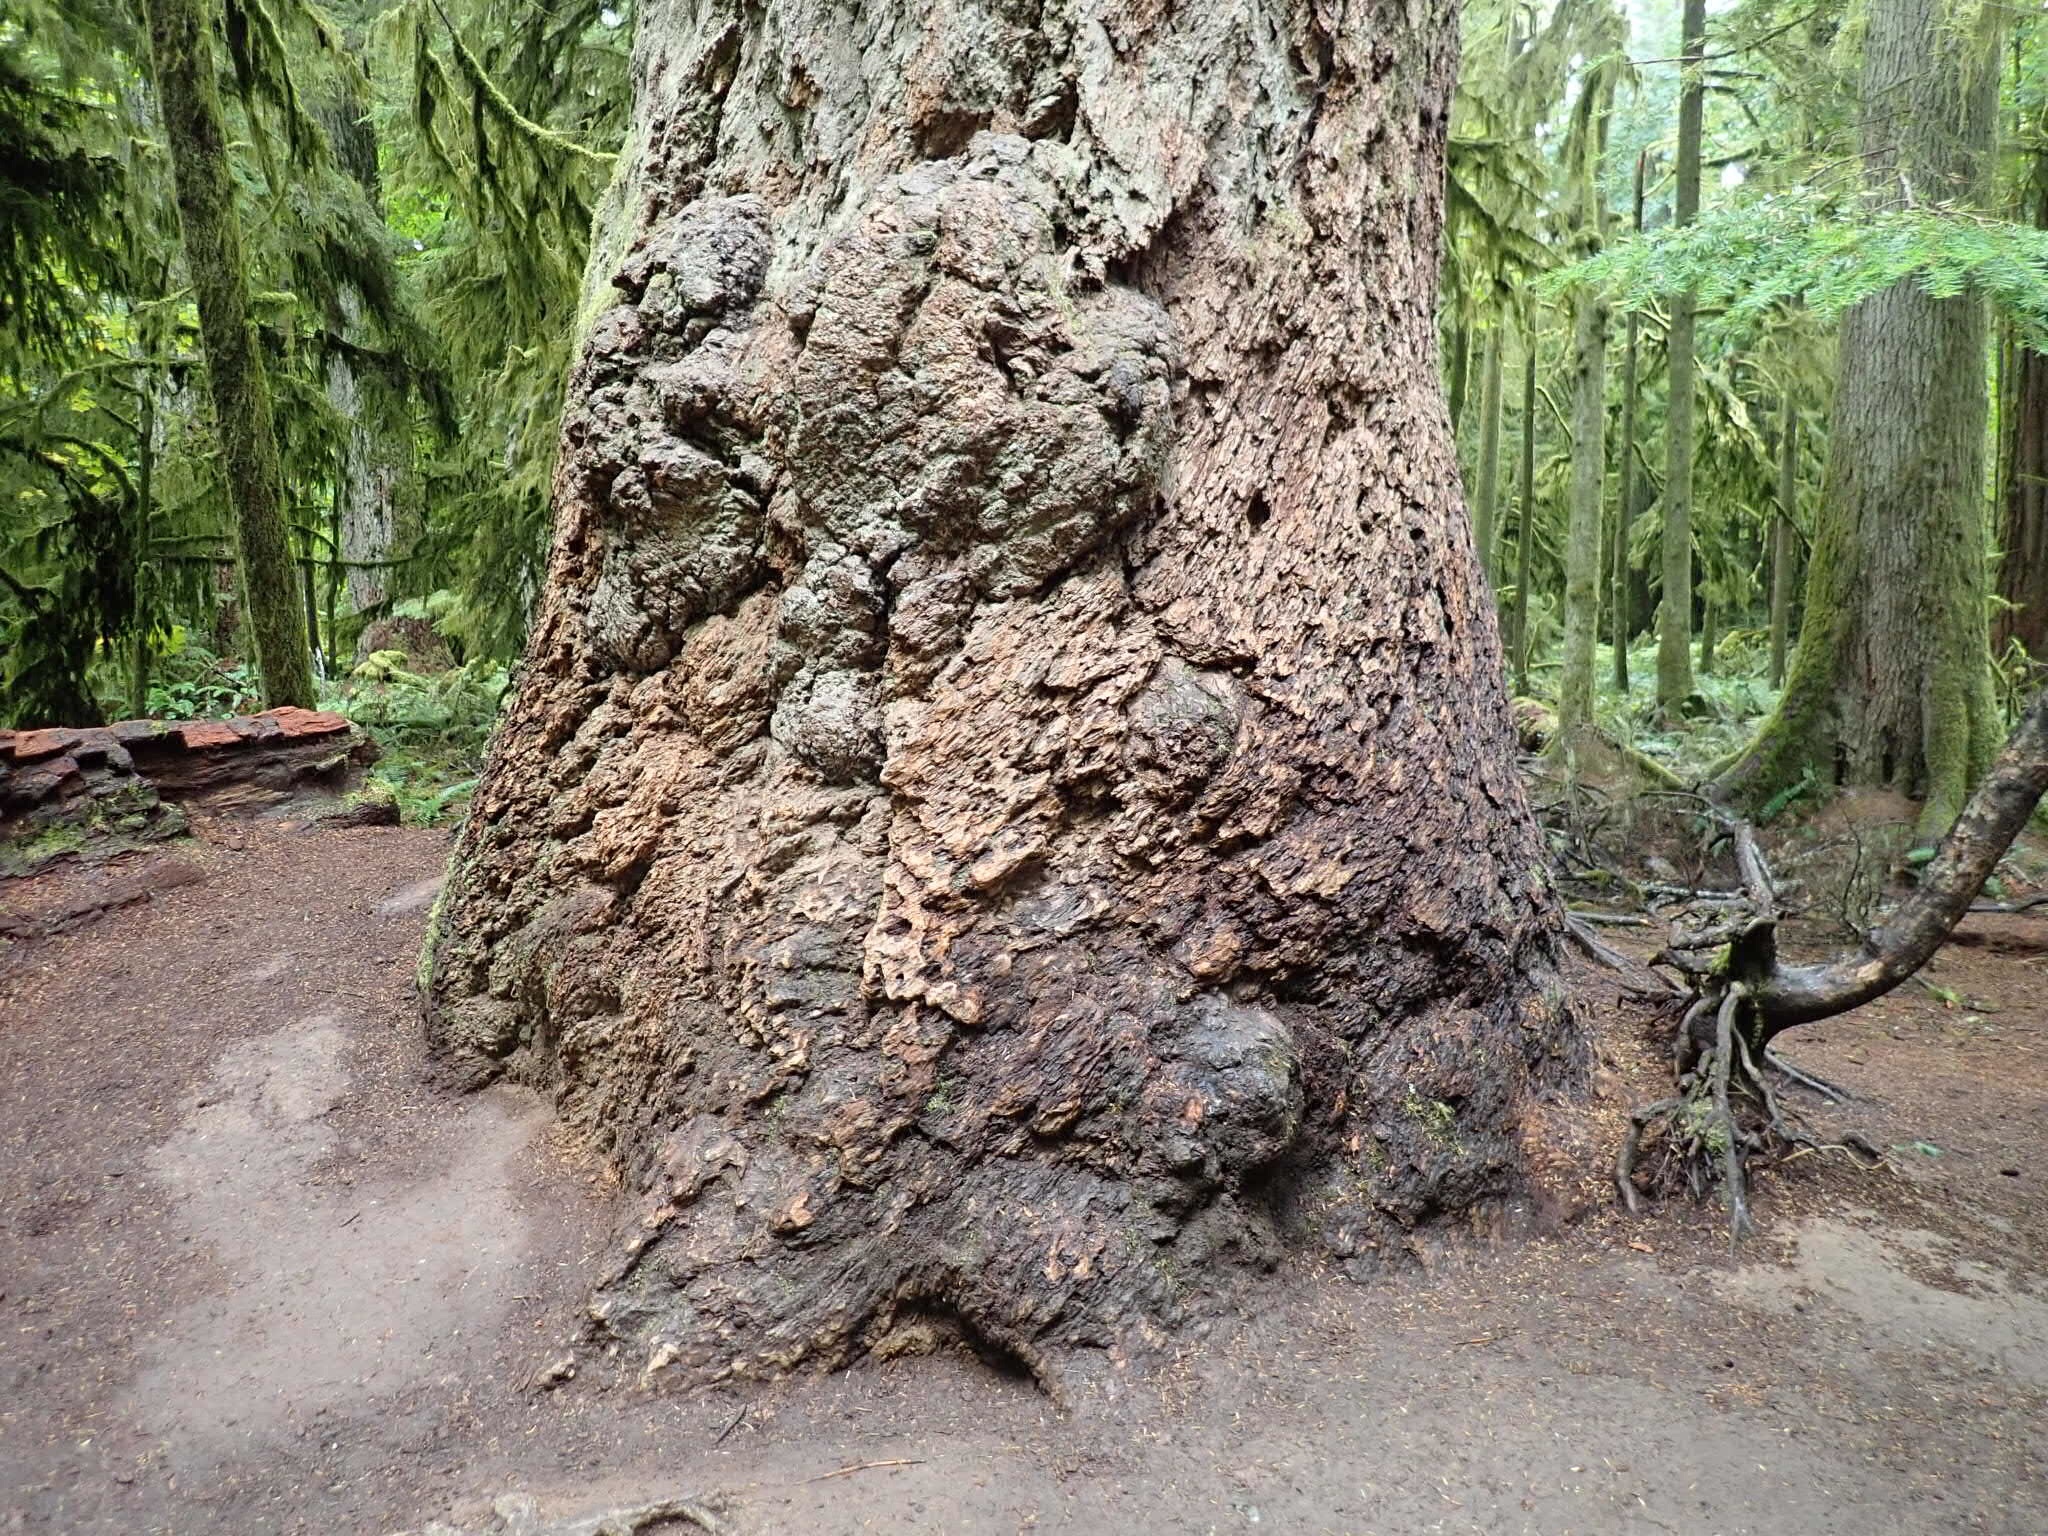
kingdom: Plantae
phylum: Tracheophyta
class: Pinopsida
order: Pinales
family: Pinaceae
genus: Pseudotsuga
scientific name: Pseudotsuga menziesii
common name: Douglas fir
